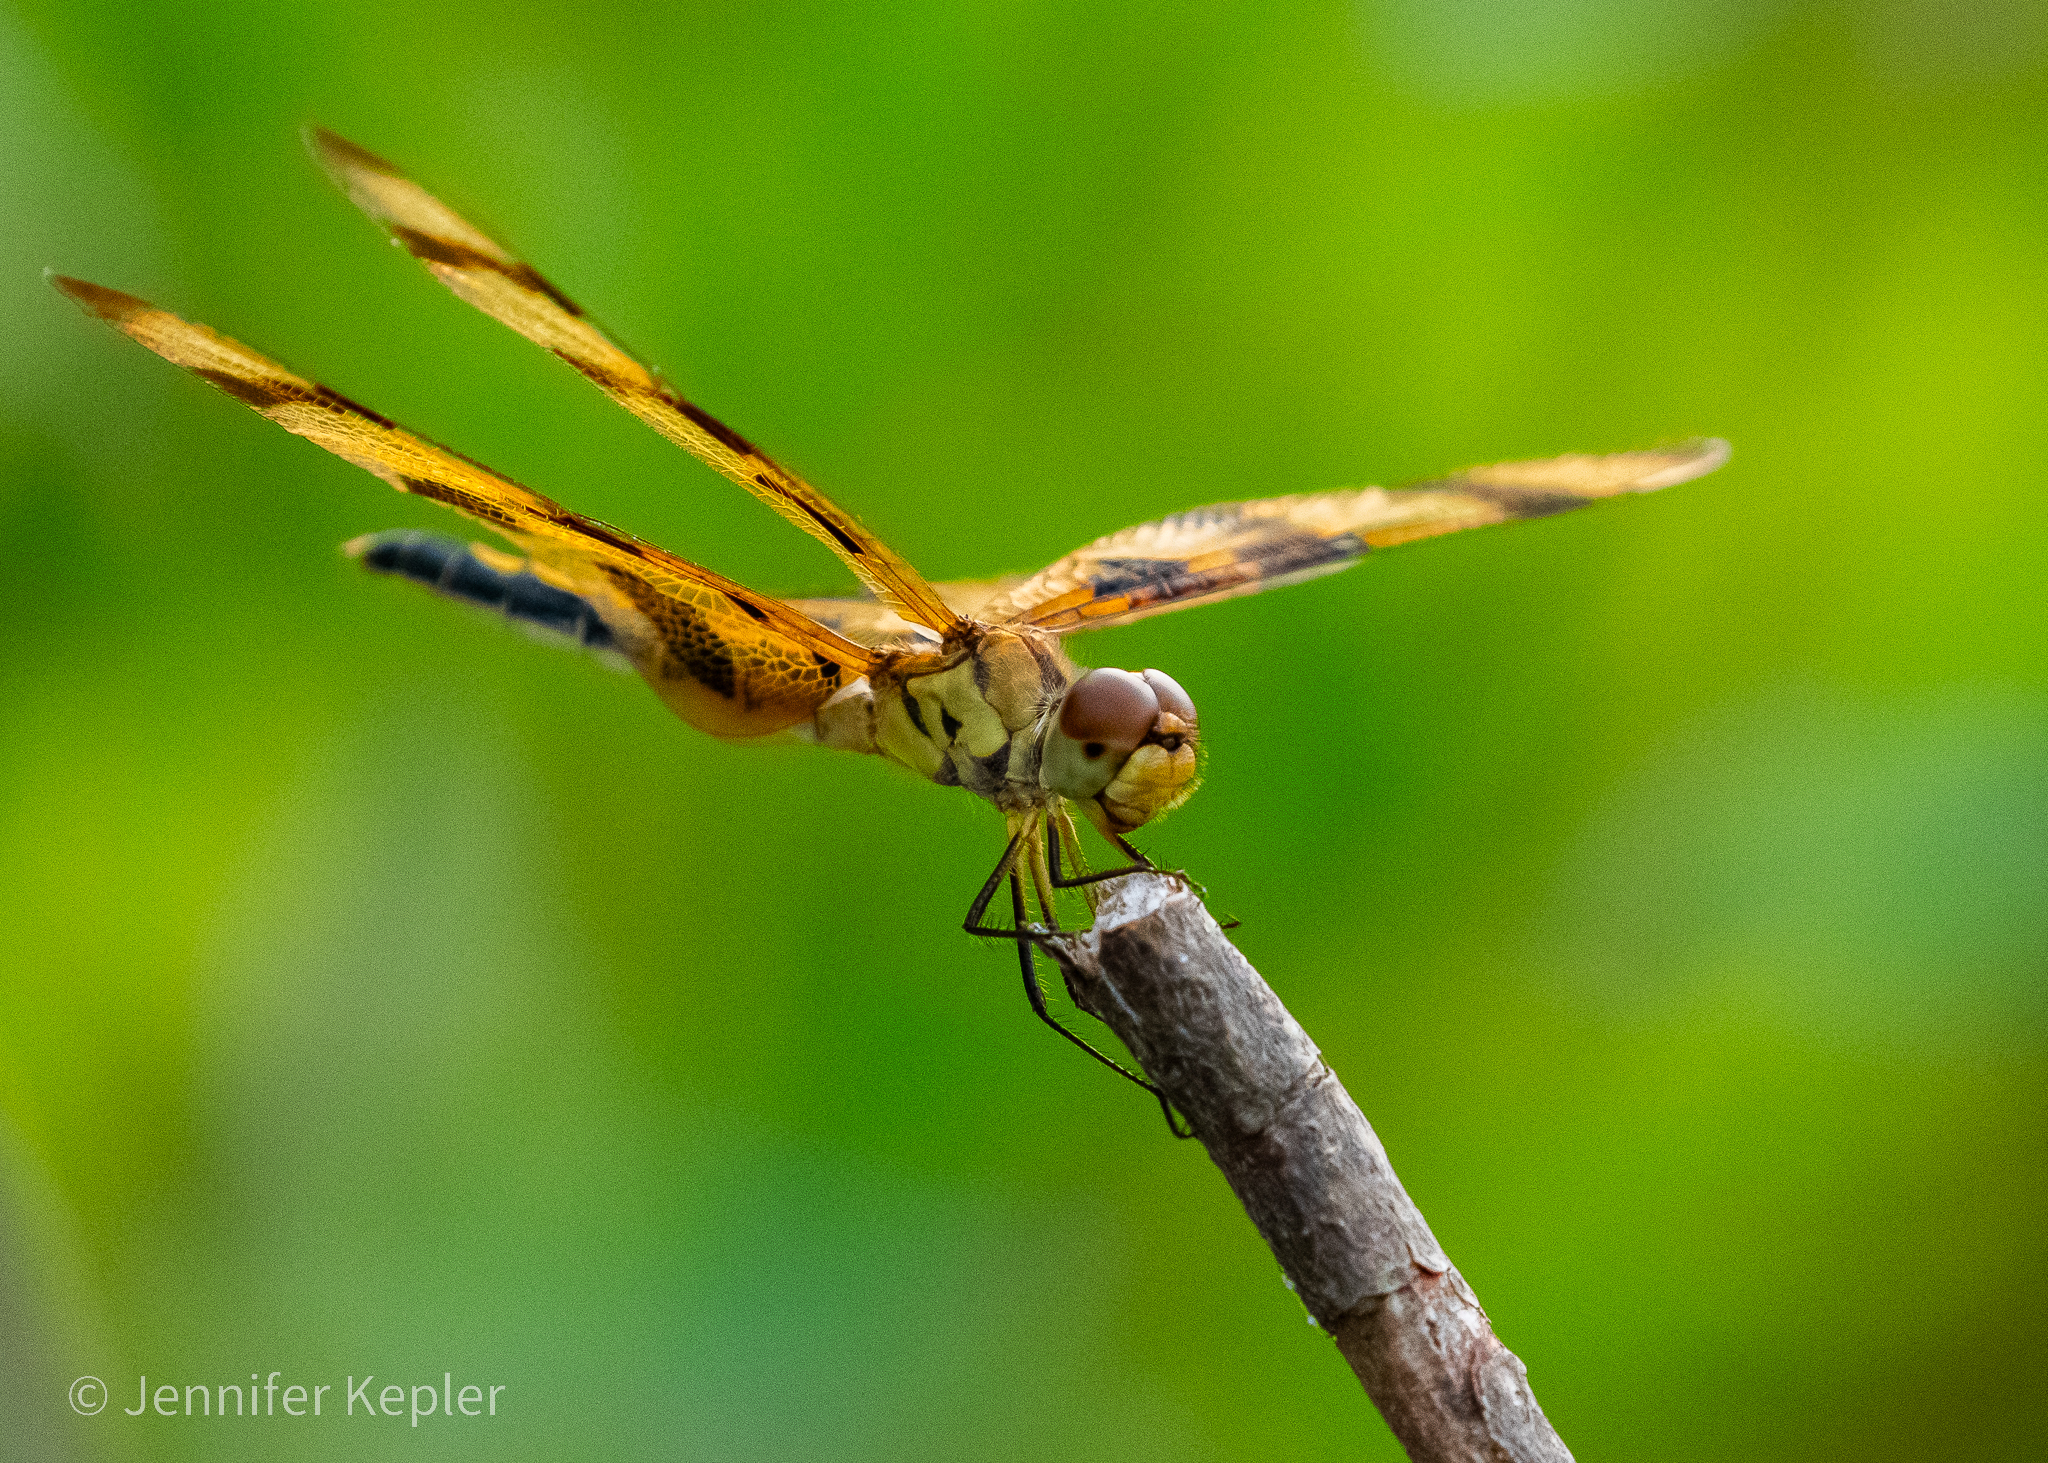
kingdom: Animalia
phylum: Arthropoda
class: Insecta
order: Odonata
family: Libellulidae
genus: Celithemis
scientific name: Celithemis eponina
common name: Halloween pennant
